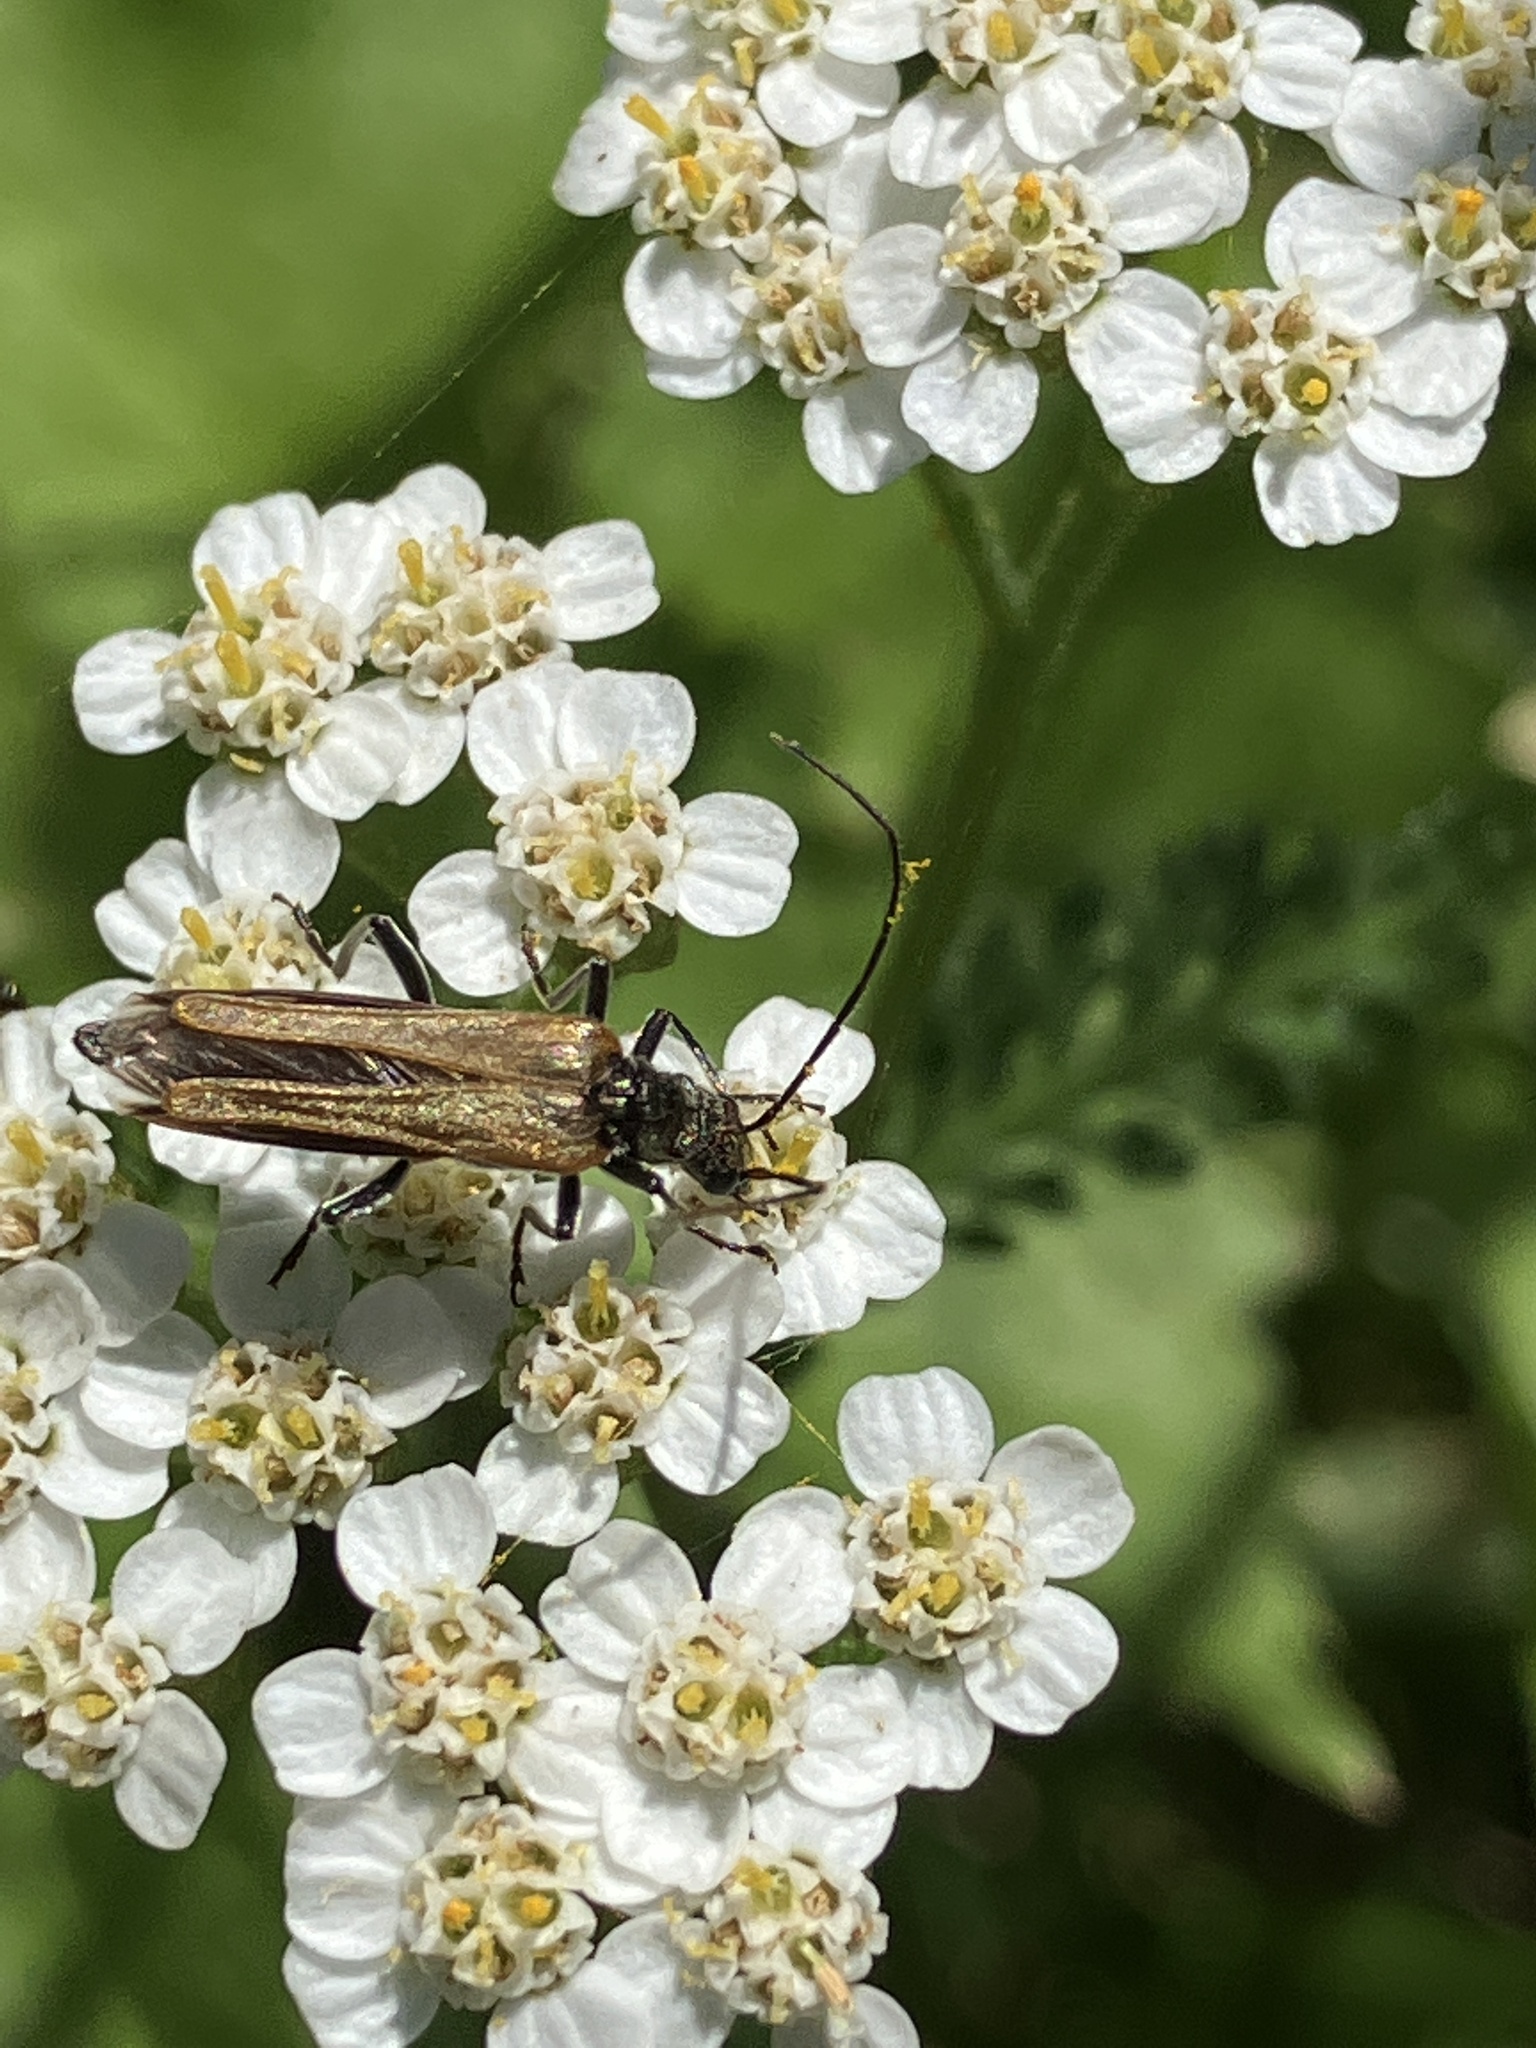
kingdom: Animalia
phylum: Arthropoda
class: Insecta
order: Coleoptera
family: Oedemeridae
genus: Oedemera
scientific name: Oedemera femorata
